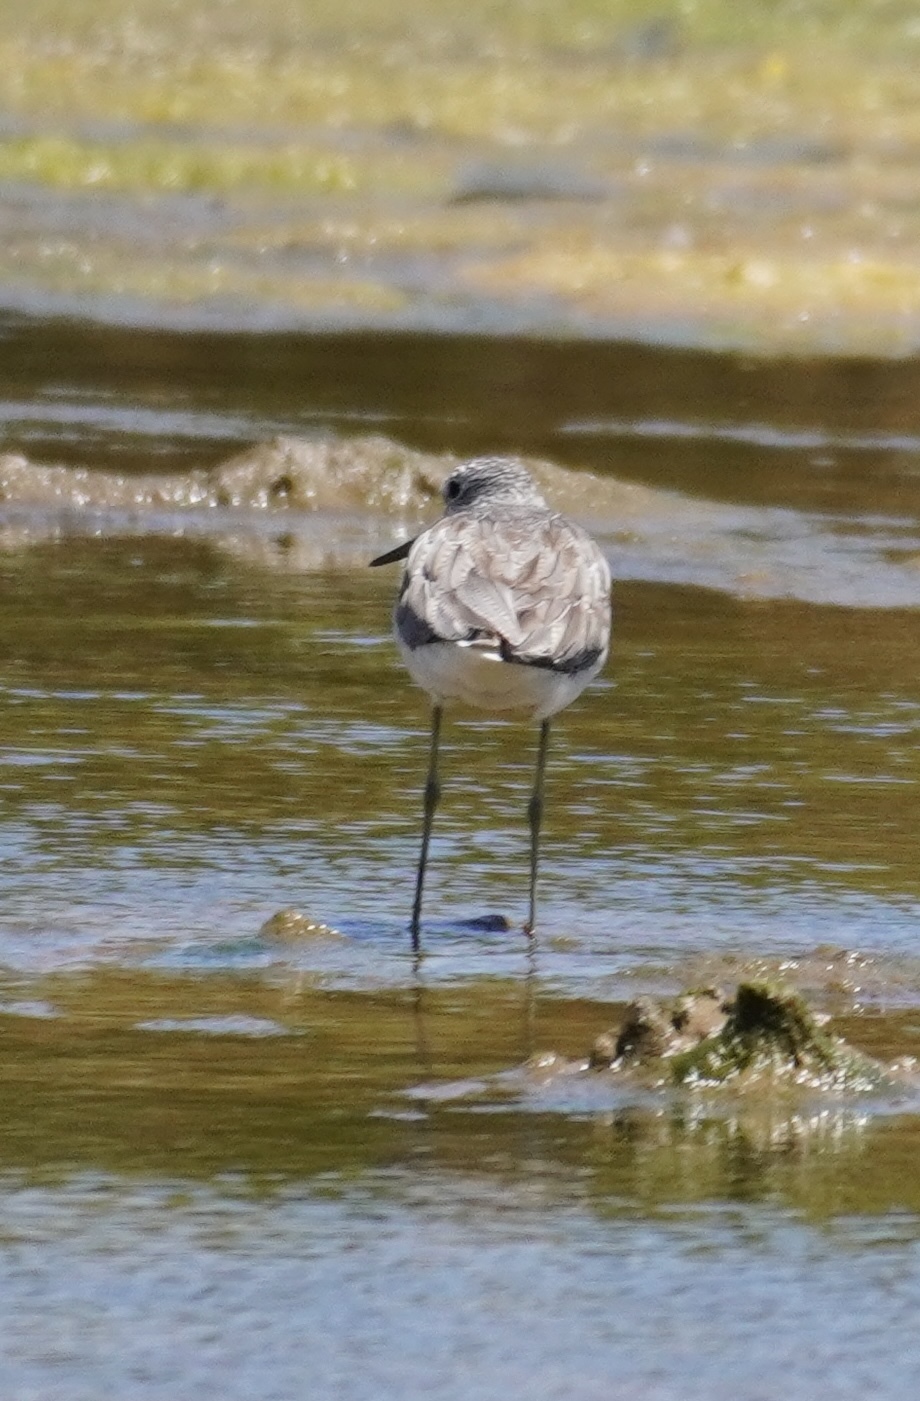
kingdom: Animalia
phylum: Chordata
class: Aves
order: Charadriiformes
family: Scolopacidae
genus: Tringa
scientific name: Tringa nebularia
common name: Common greenshank
